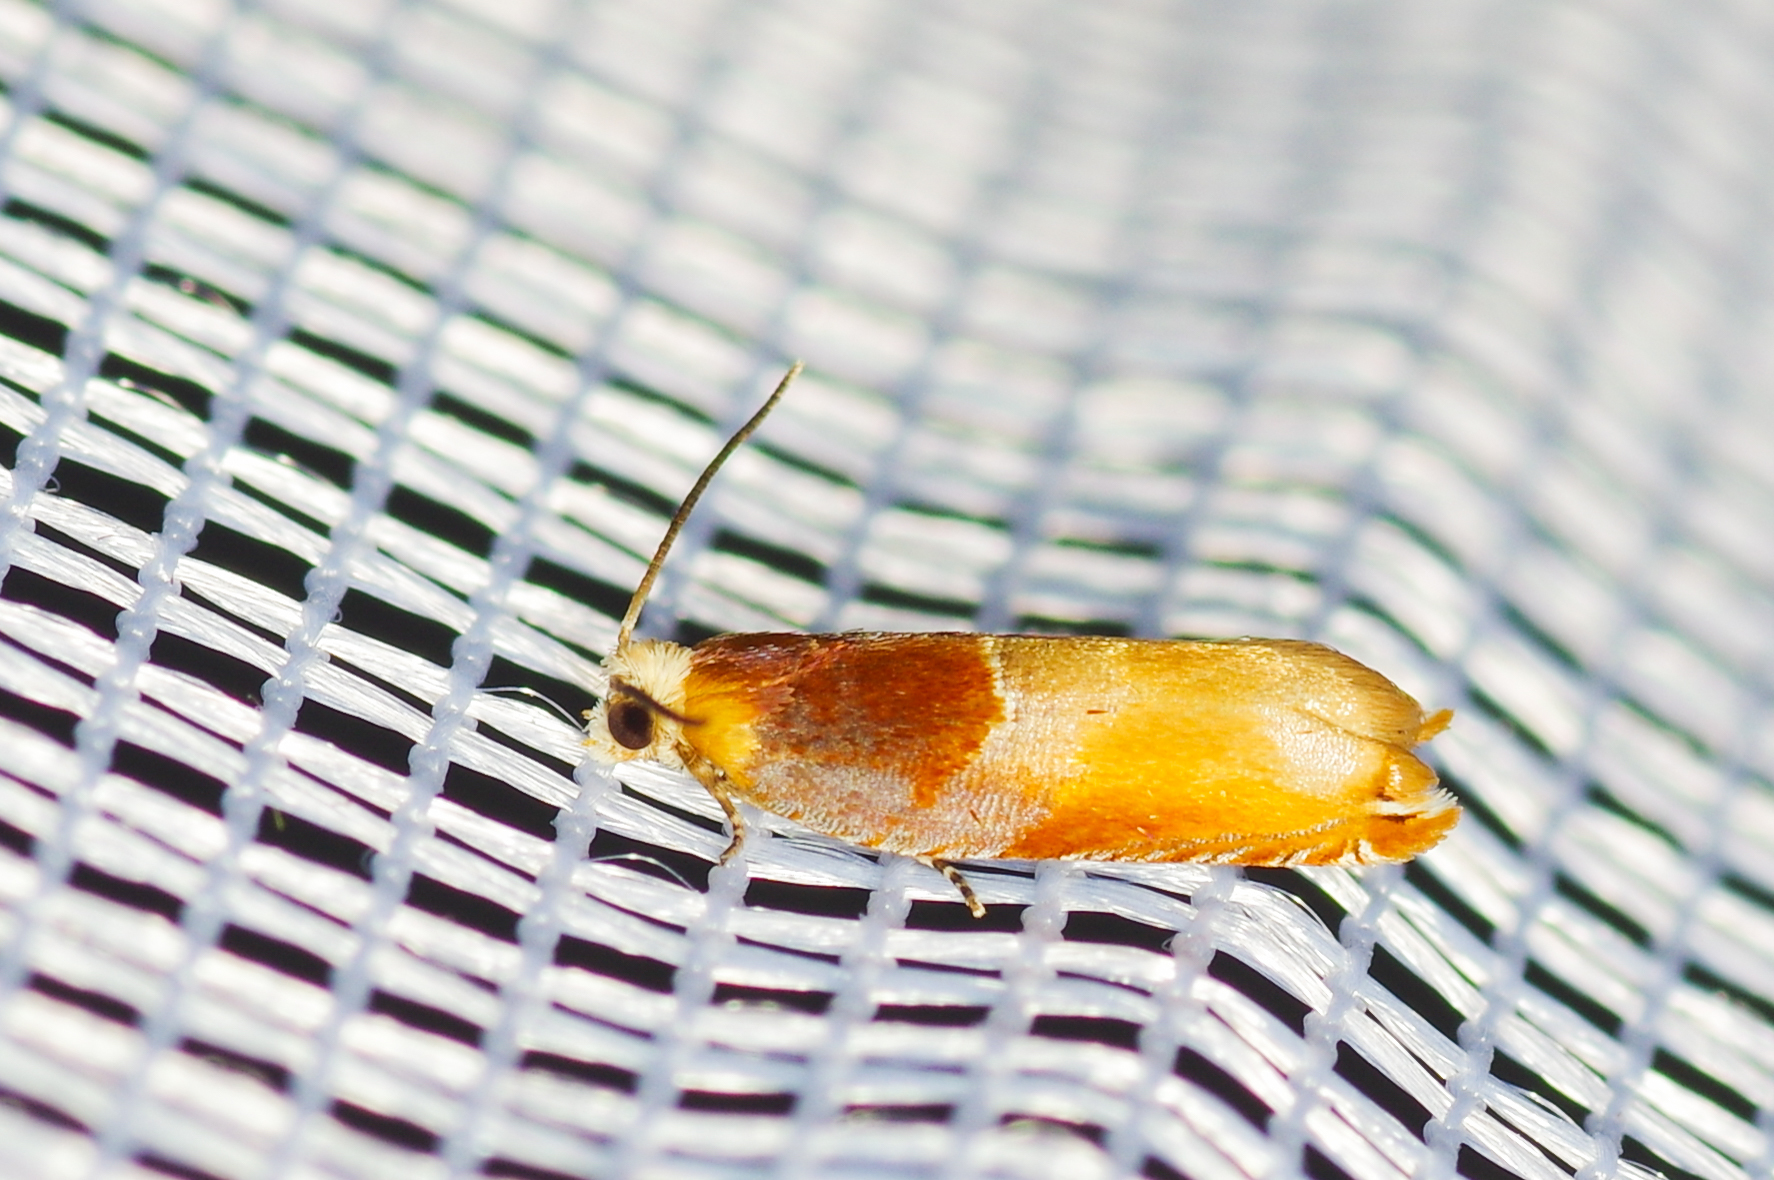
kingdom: Animalia
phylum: Arthropoda
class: Insecta
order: Lepidoptera
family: Tortricidae
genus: Ancylis
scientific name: Ancylis divisana
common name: Two-toned ancylis moth
